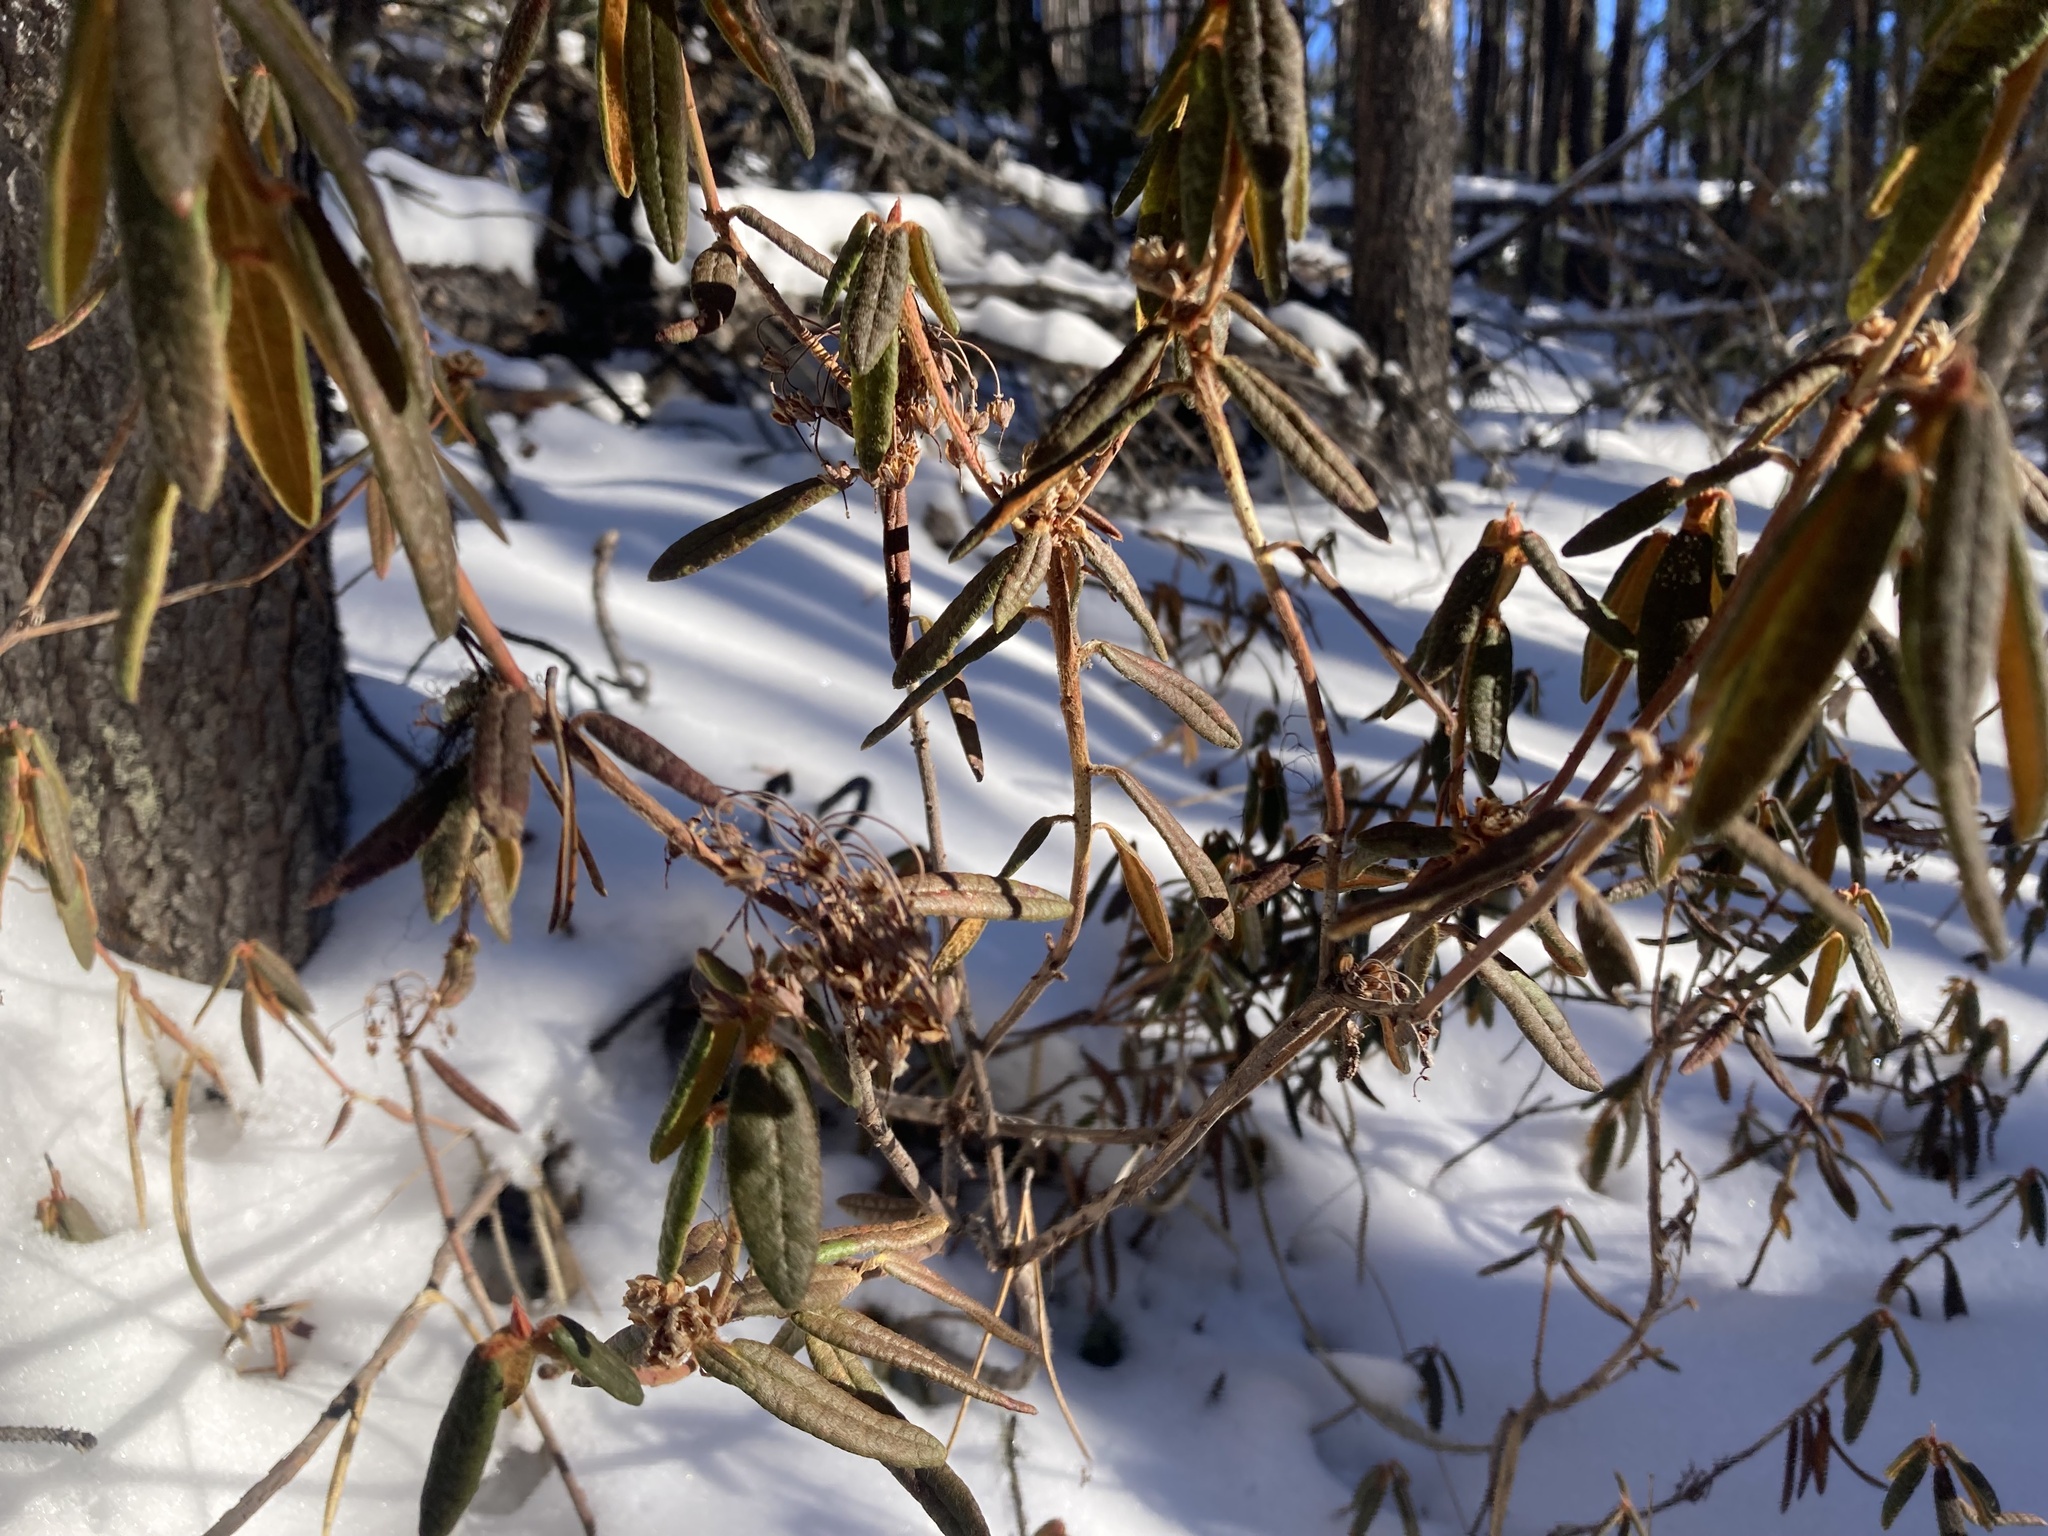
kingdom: Plantae
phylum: Tracheophyta
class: Magnoliopsida
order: Ericales
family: Ericaceae
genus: Rhododendron
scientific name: Rhododendron groenlandicum
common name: Bog labrador tea
